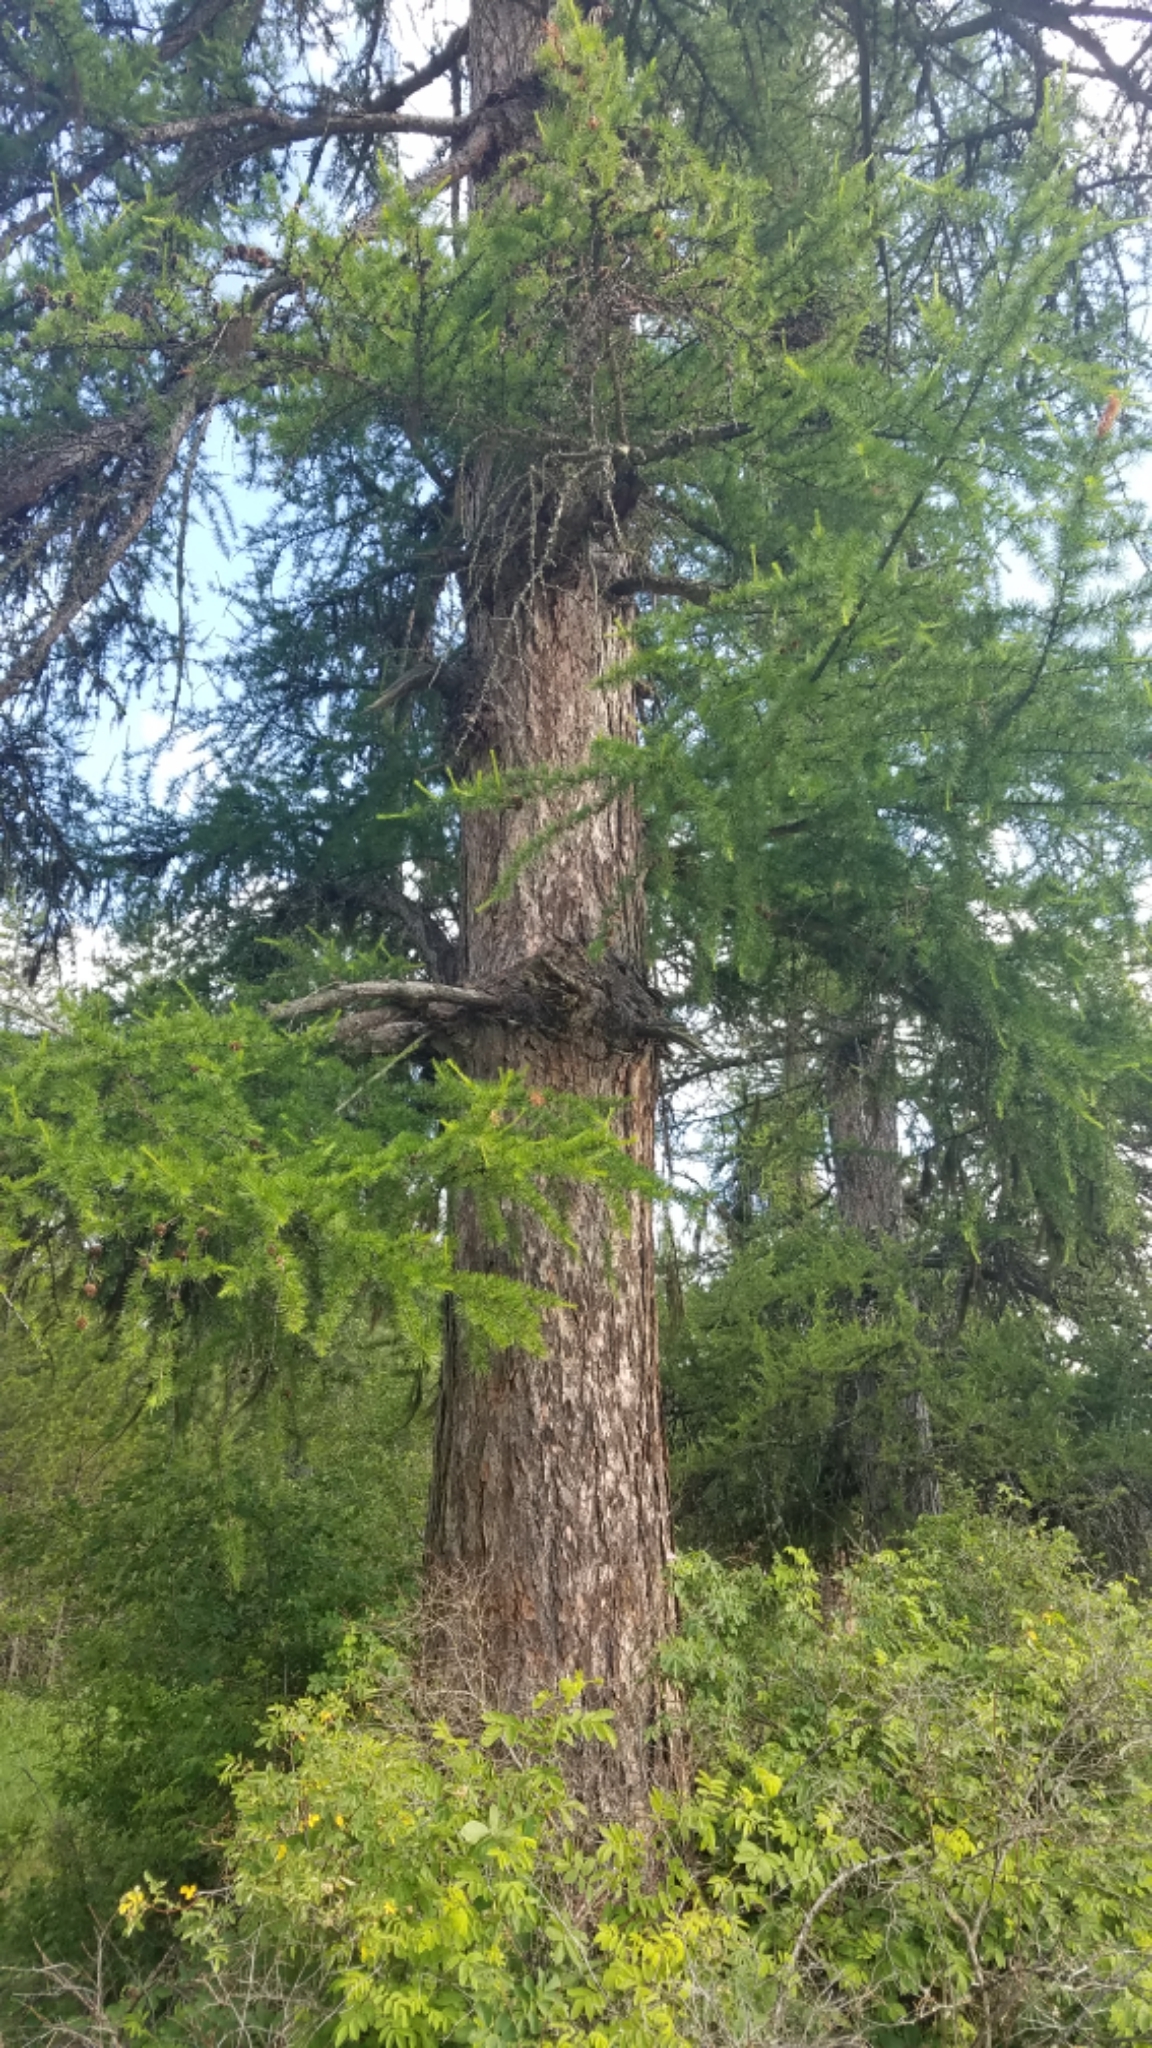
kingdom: Plantae
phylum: Tracheophyta
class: Pinopsida
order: Pinales
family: Pinaceae
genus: Larix
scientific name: Larix occidentalis
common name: Western larch
